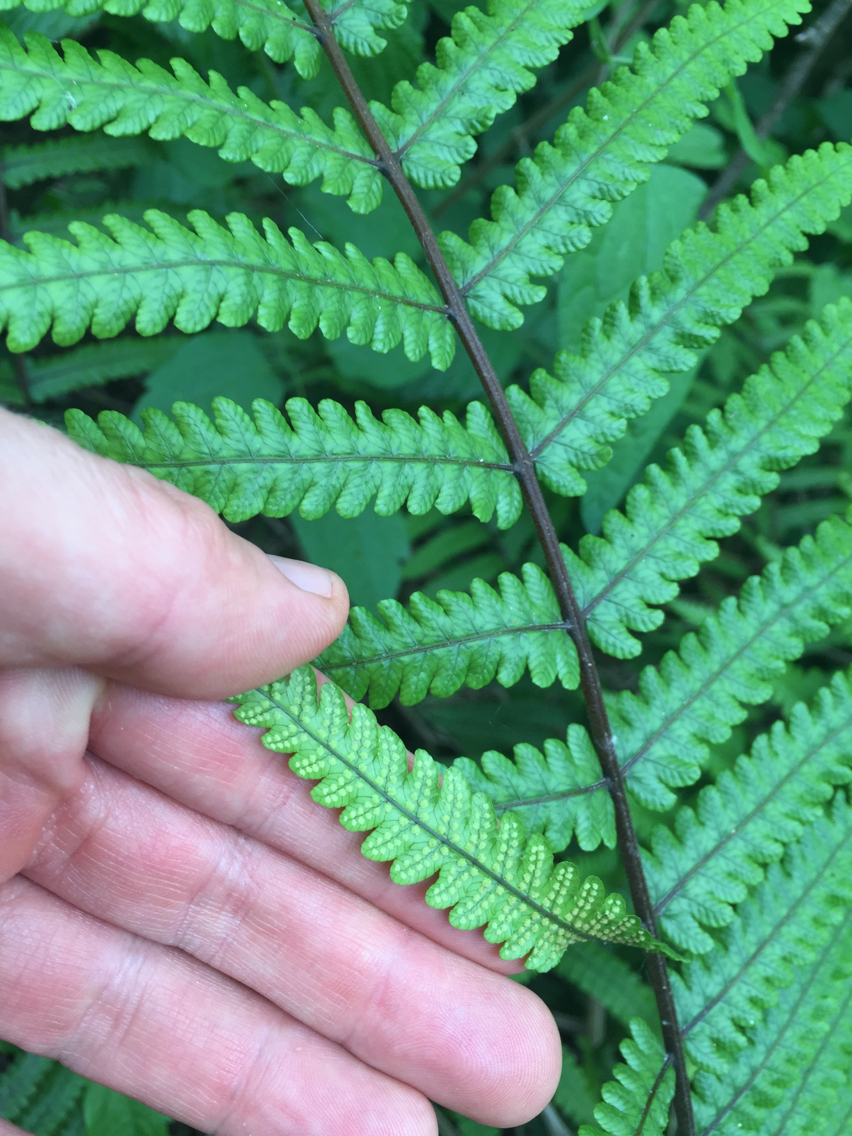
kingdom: Plantae
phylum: Tracheophyta
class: Polypodiopsida
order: Polypodiales
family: Thelypteridaceae
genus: Pakau
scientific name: Pakau pennigera
